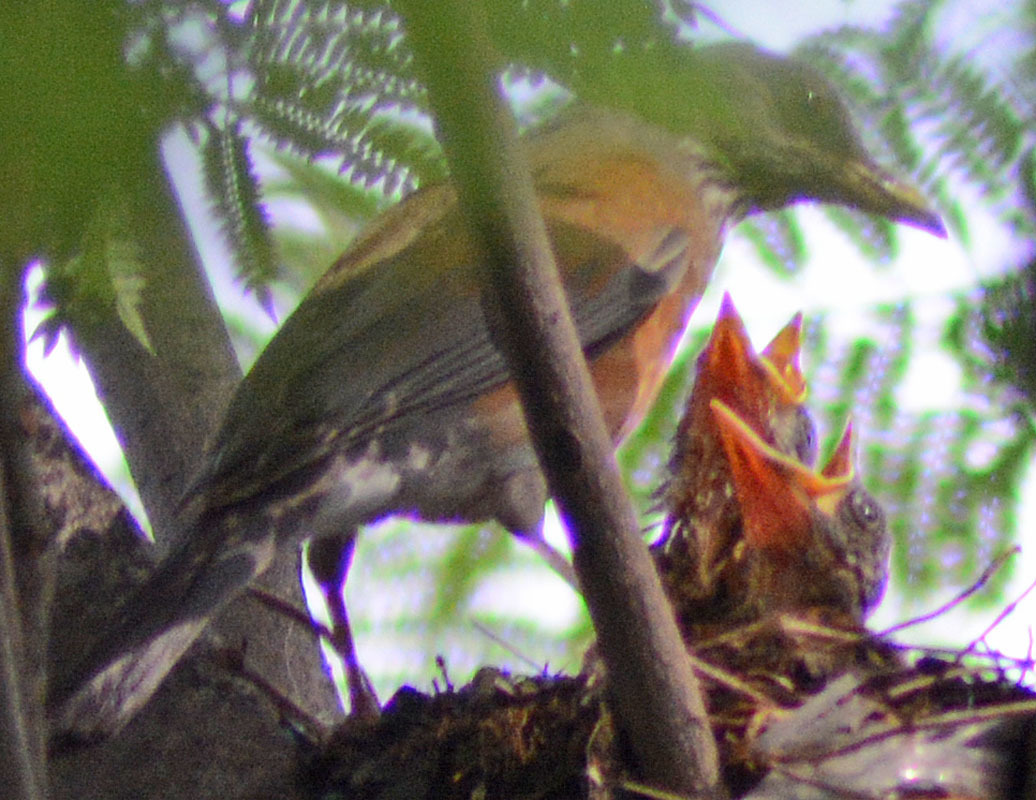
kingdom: Animalia
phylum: Chordata
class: Aves
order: Passeriformes
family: Turdidae
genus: Turdus
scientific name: Turdus rufopalliatus
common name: Rufous-backed robin
